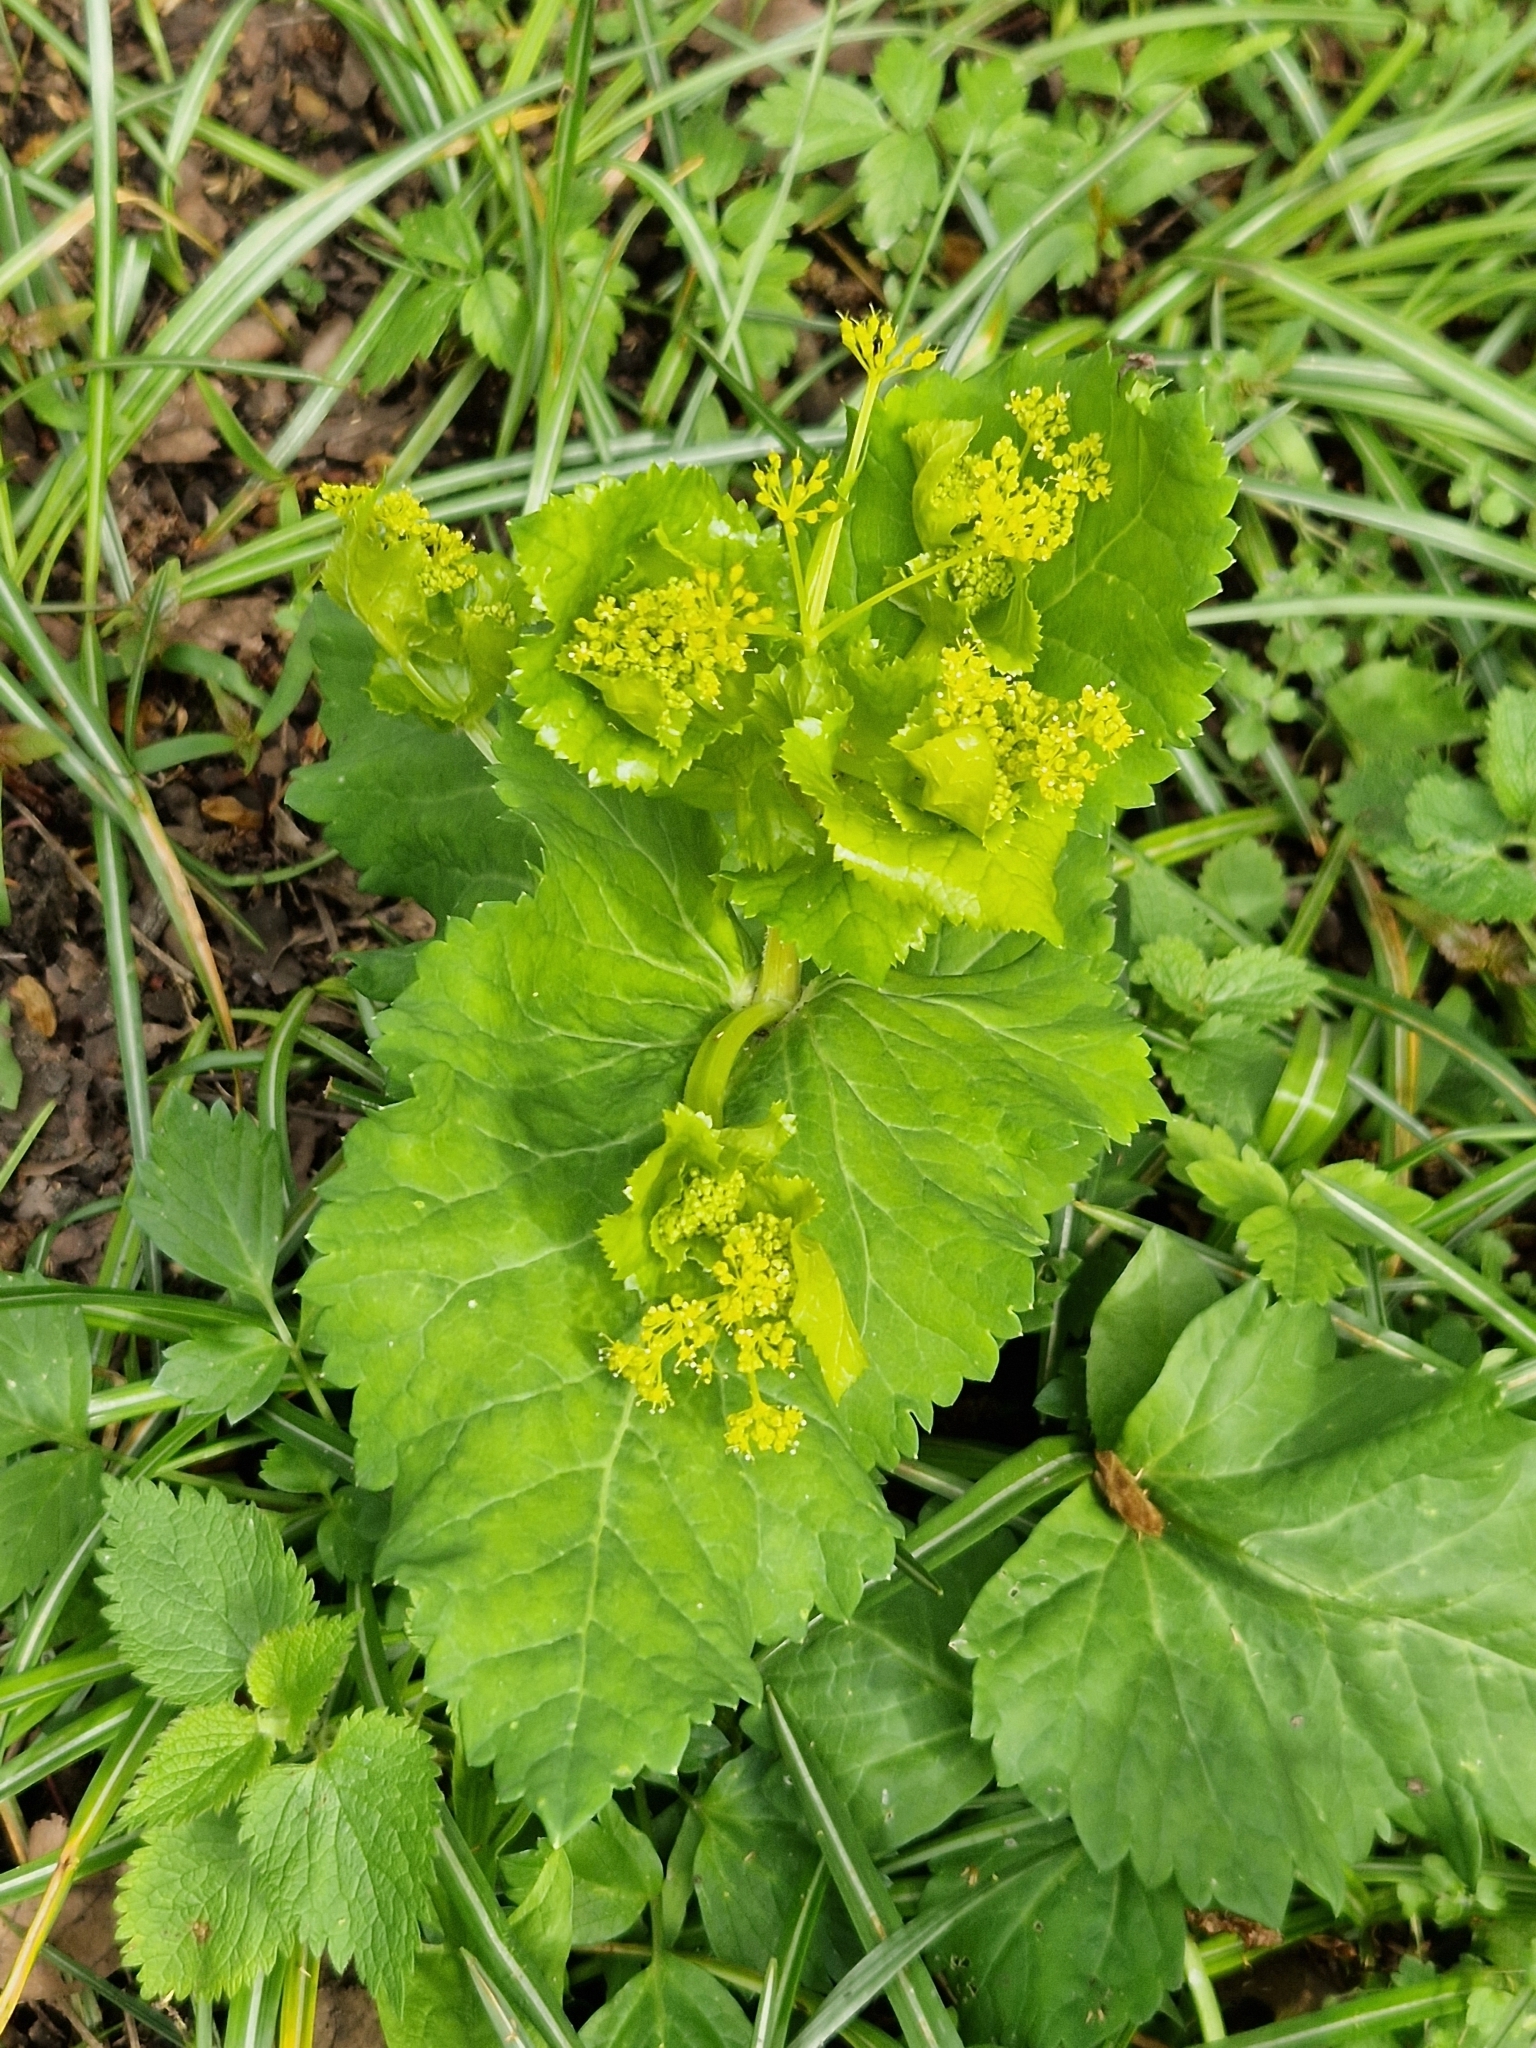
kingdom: Plantae
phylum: Tracheophyta
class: Magnoliopsida
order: Apiales
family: Apiaceae
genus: Smyrnium
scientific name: Smyrnium perfoliatum
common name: Perfoliate alexanders
